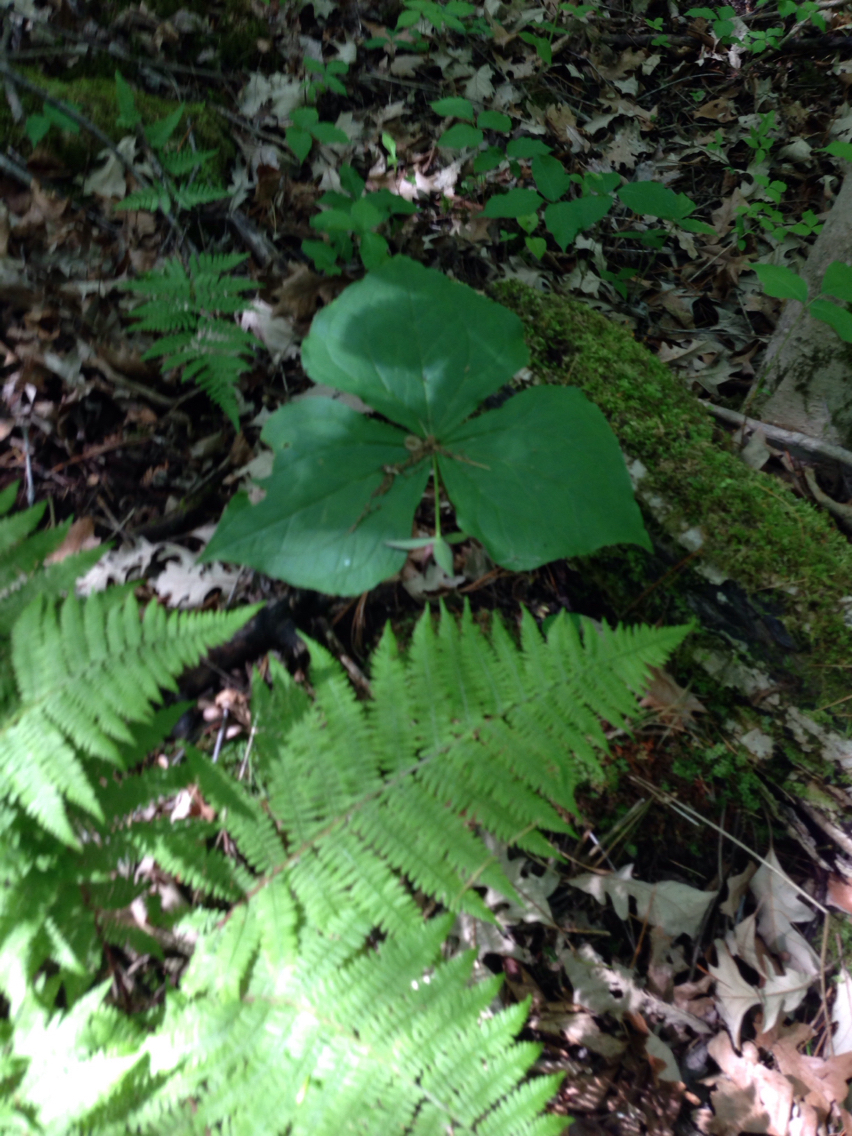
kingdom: Plantae
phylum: Tracheophyta
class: Liliopsida
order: Liliales
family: Melanthiaceae
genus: Trillium
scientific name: Trillium erectum
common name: Purple trillium
